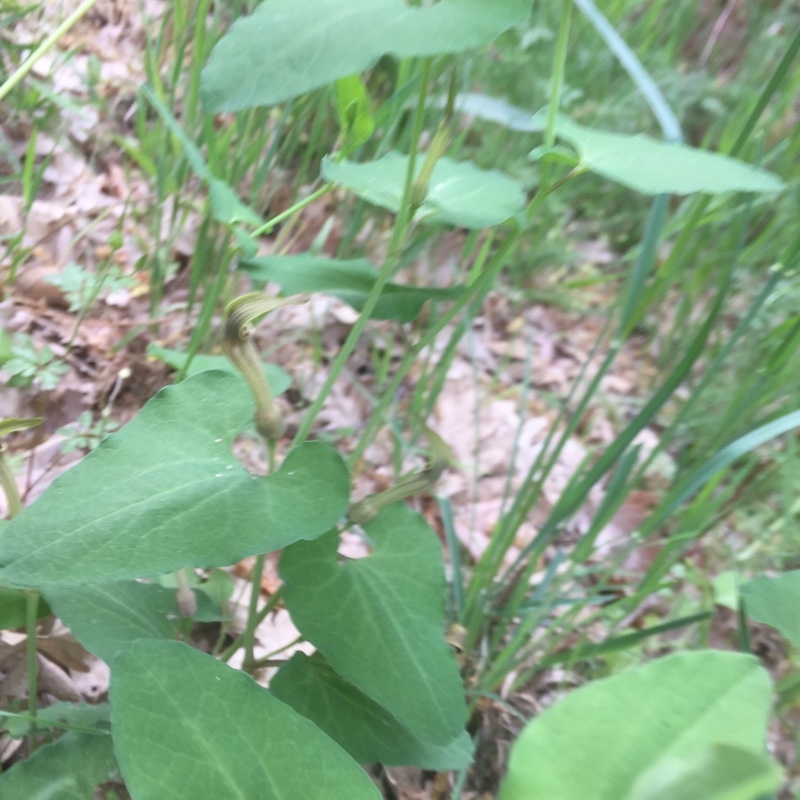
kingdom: Plantae
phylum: Tracheophyta
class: Magnoliopsida
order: Piperales
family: Aristolochiaceae
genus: Aristolochia
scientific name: Aristolochia paucinervis
